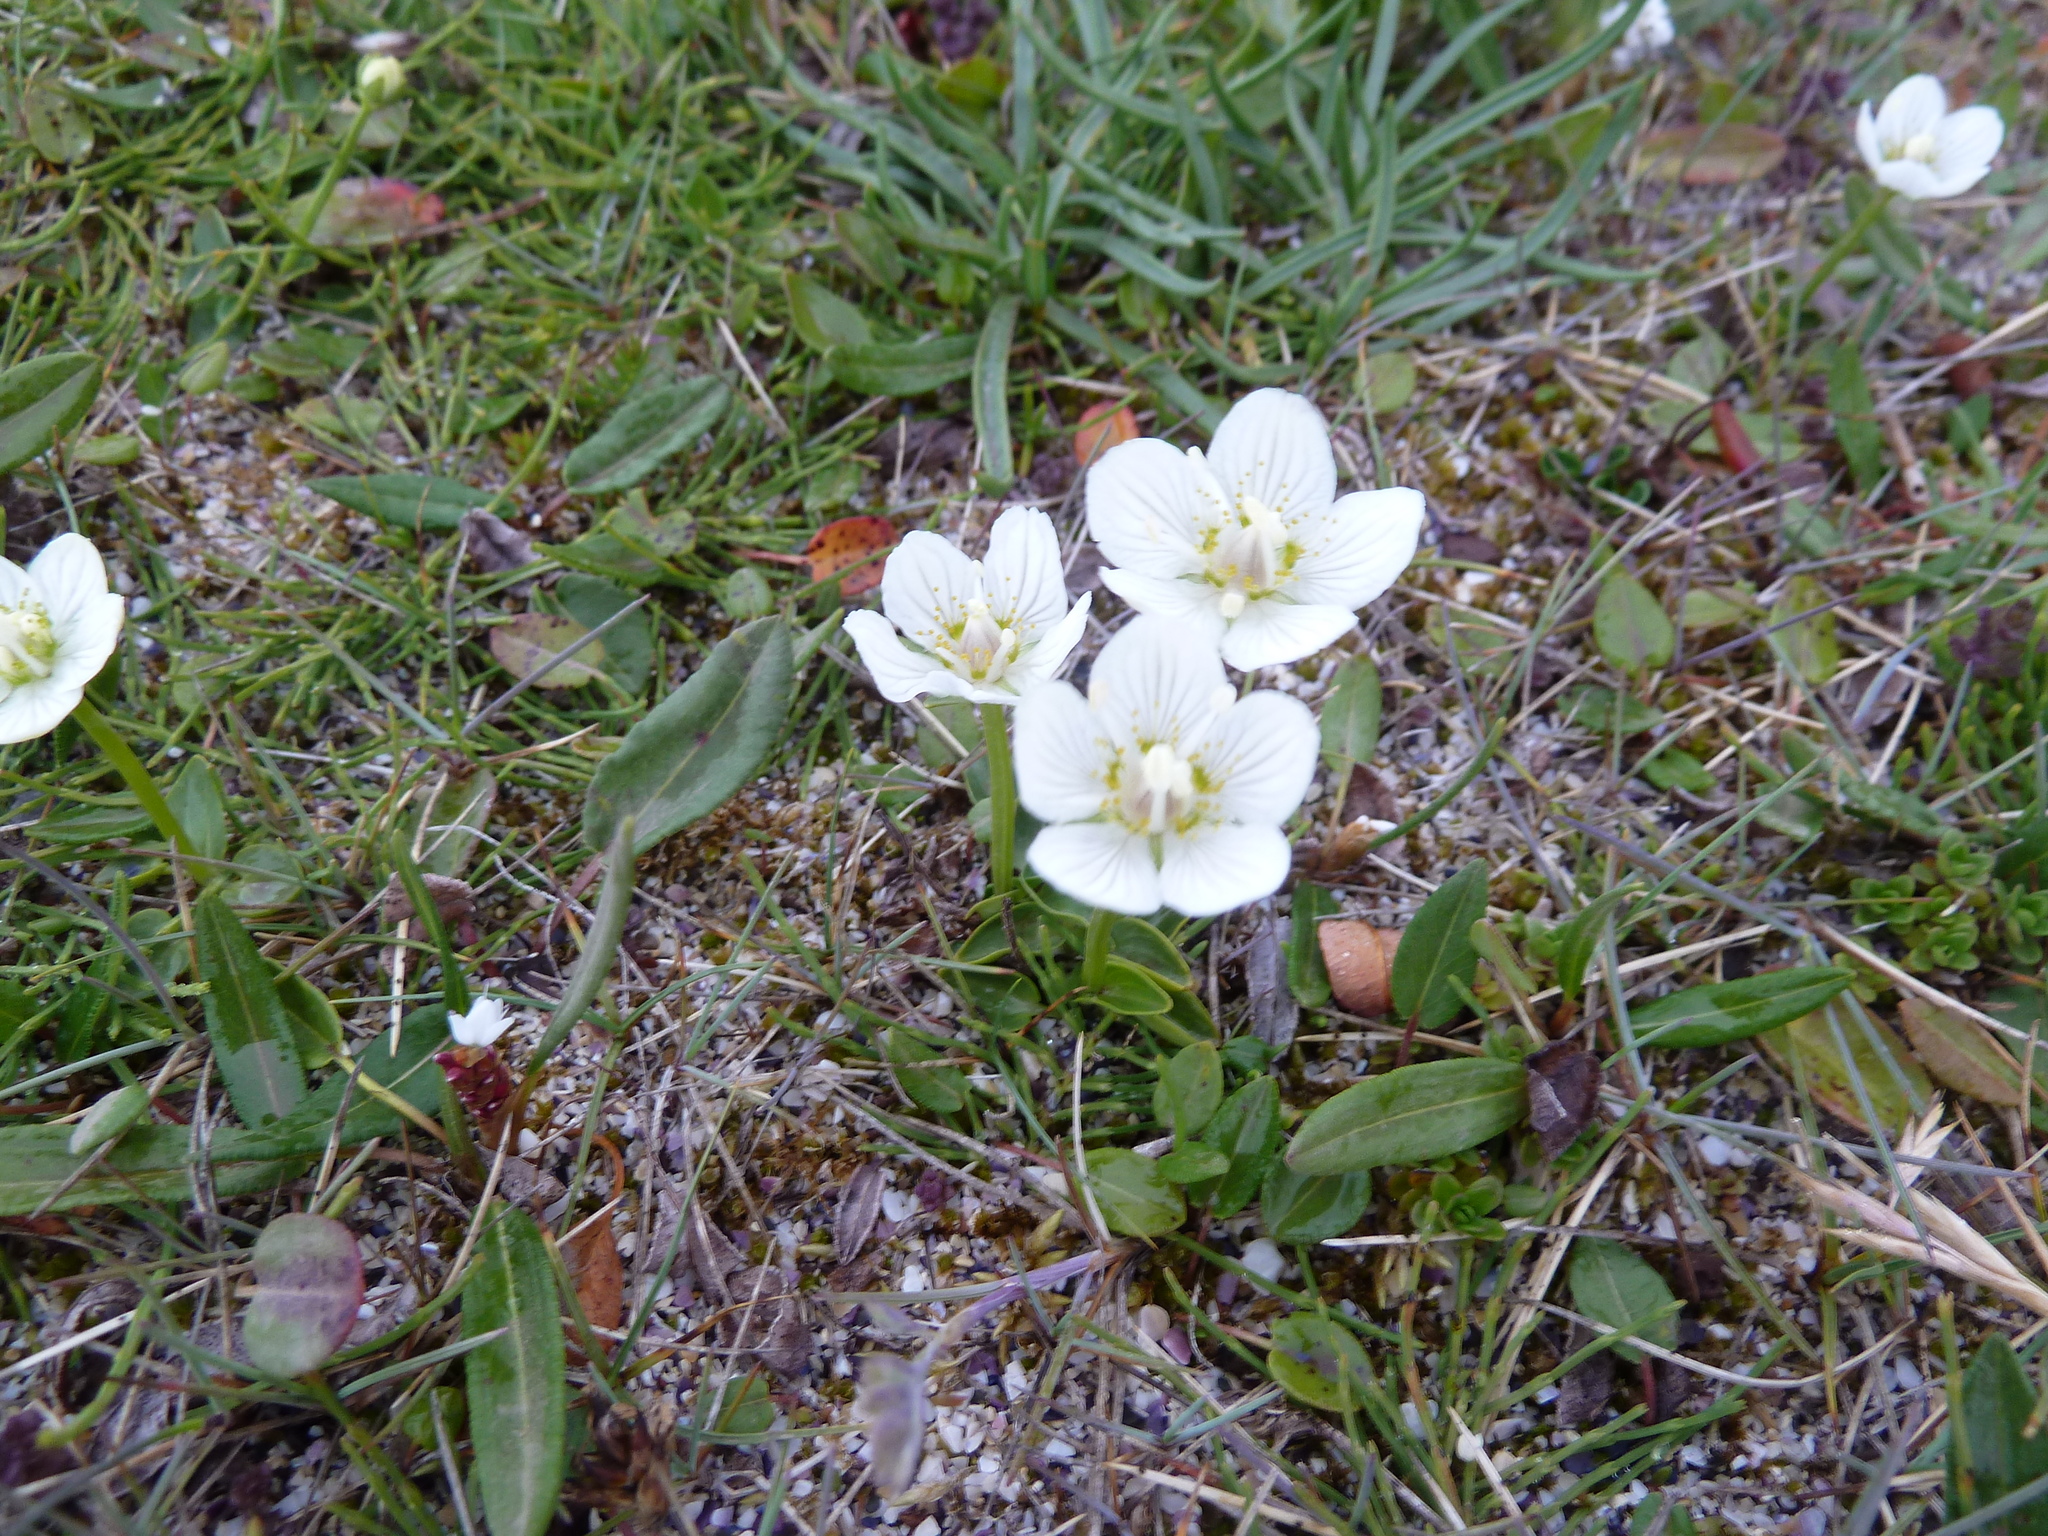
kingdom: Plantae
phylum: Tracheophyta
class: Magnoliopsida
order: Celastrales
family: Parnassiaceae
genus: Parnassia
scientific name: Parnassia palustris
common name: Grass-of-parnassus
